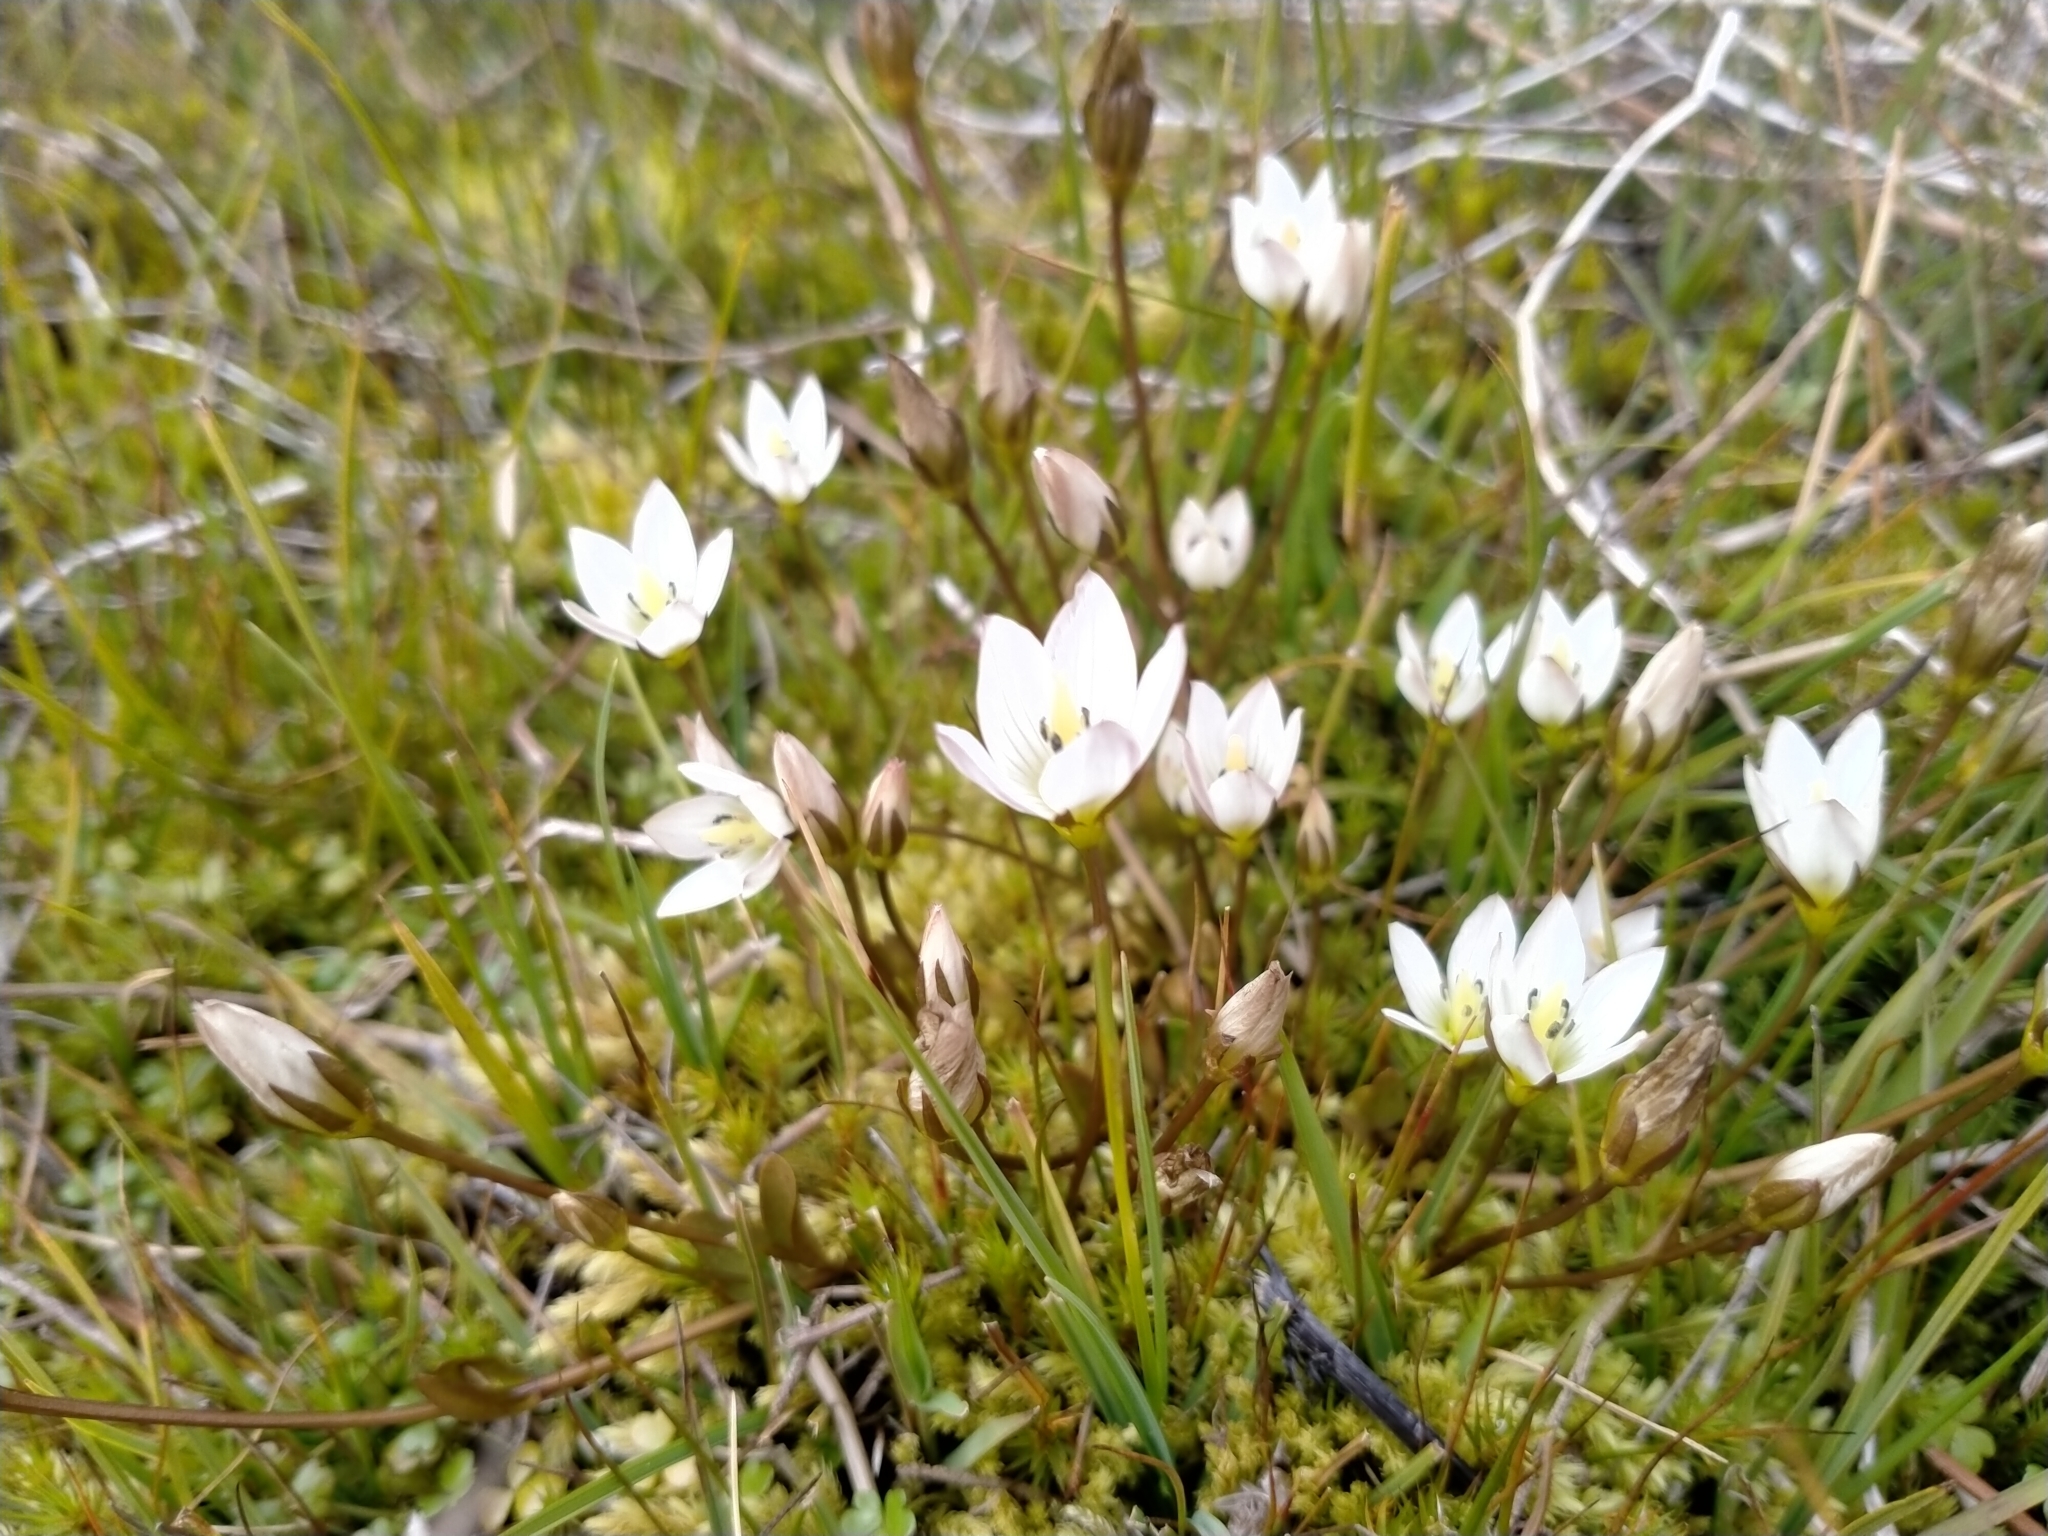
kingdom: Plantae
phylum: Tracheophyta
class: Magnoliopsida
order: Gentianales
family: Gentianaceae
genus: Gentianella
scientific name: Gentianella grisebachii
